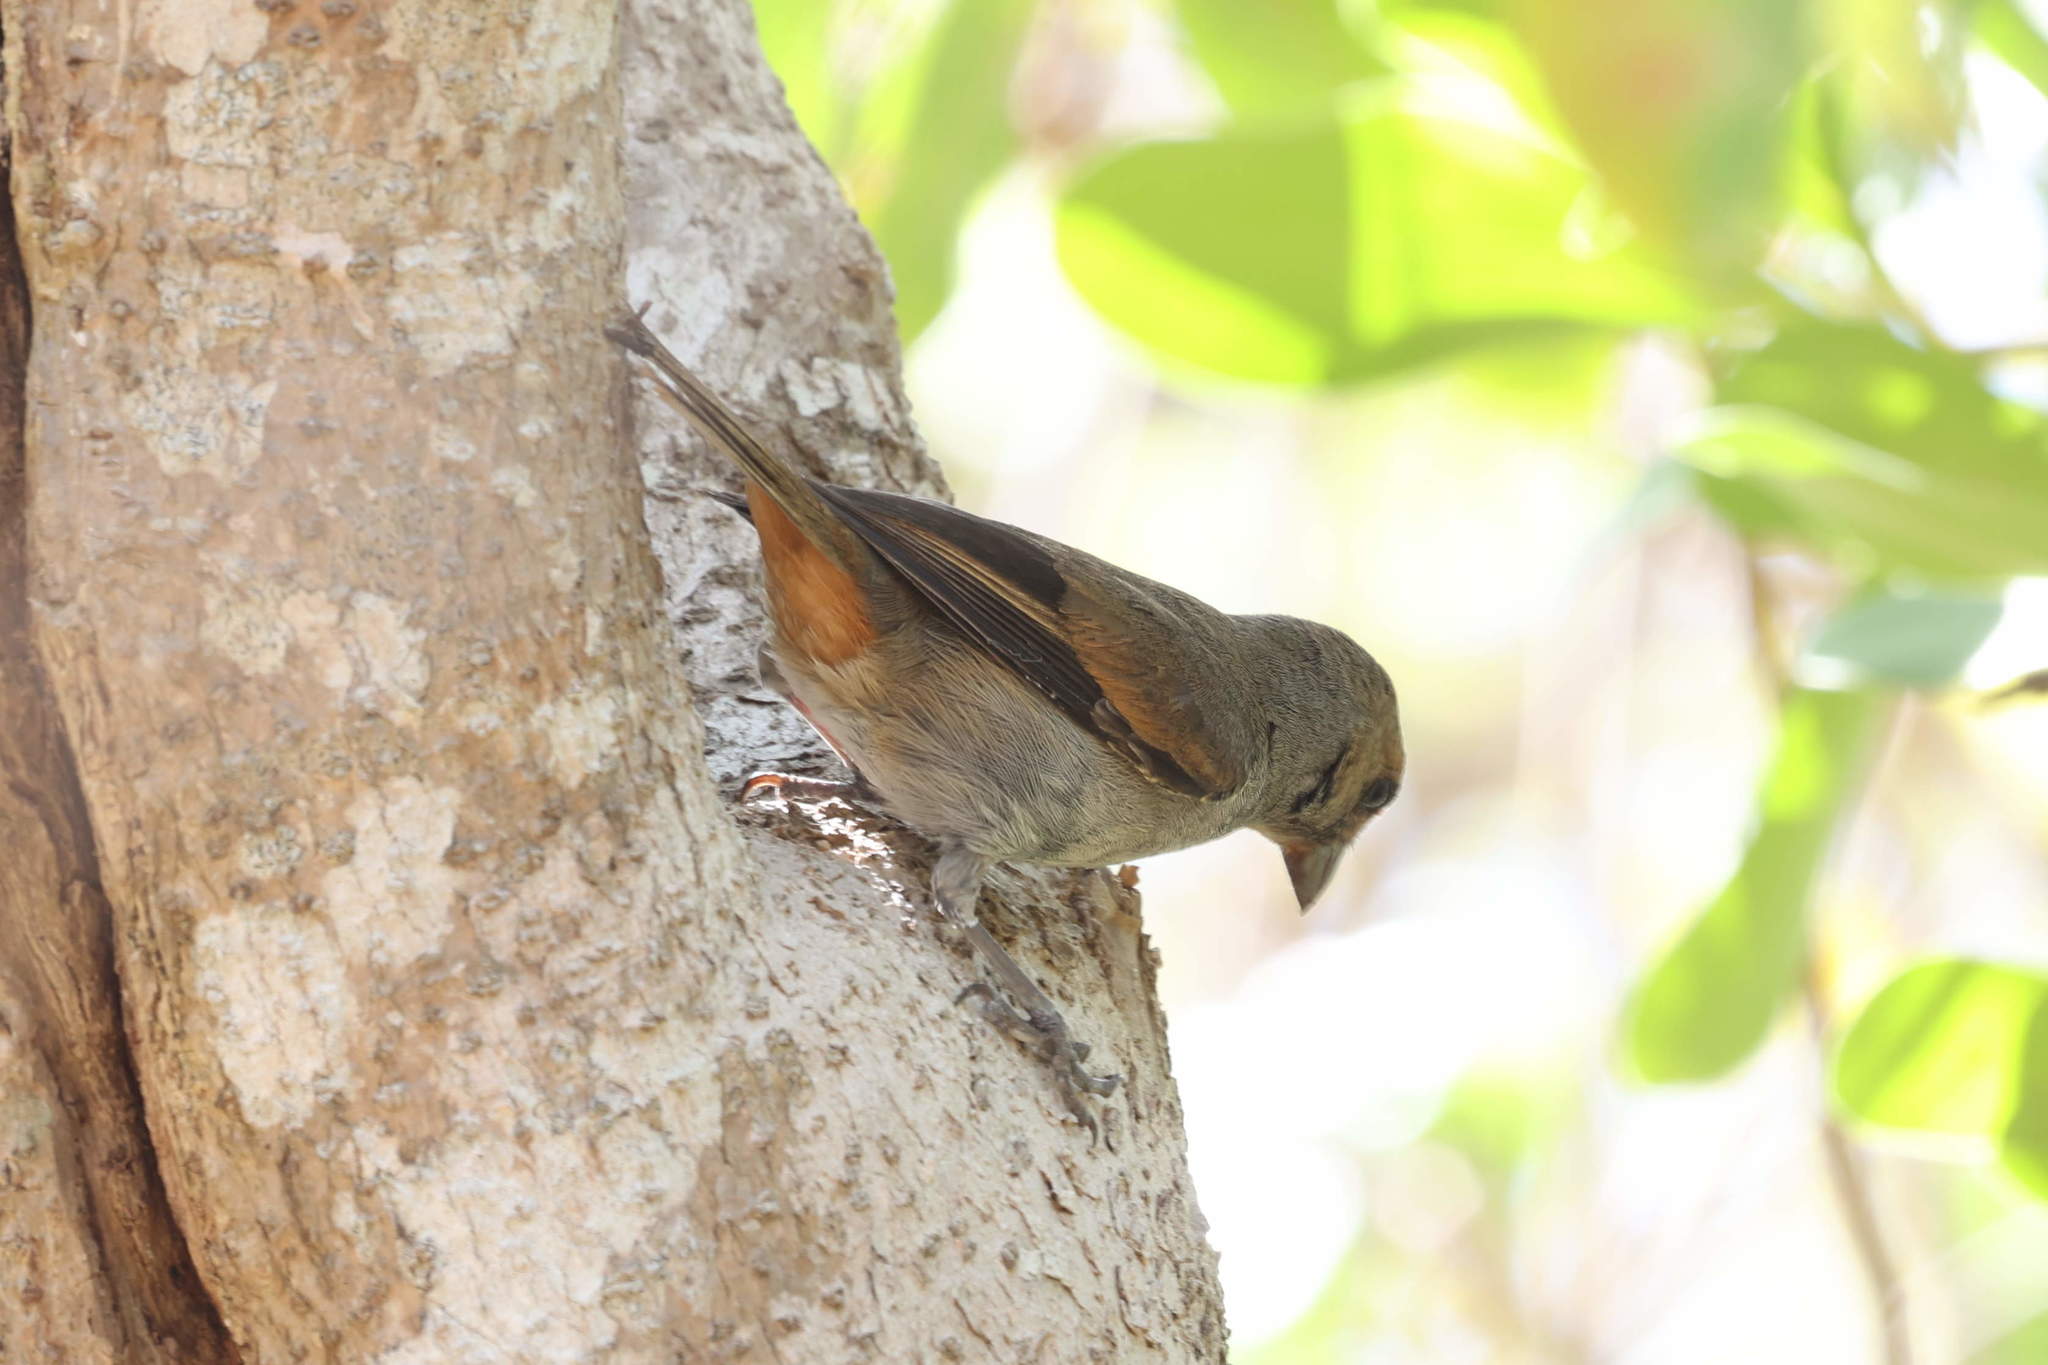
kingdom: Animalia
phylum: Chordata
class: Aves
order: Passeriformes
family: Thraupidae
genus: Loxigilla
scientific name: Loxigilla noctis
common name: Lesser antillean bullfinch
